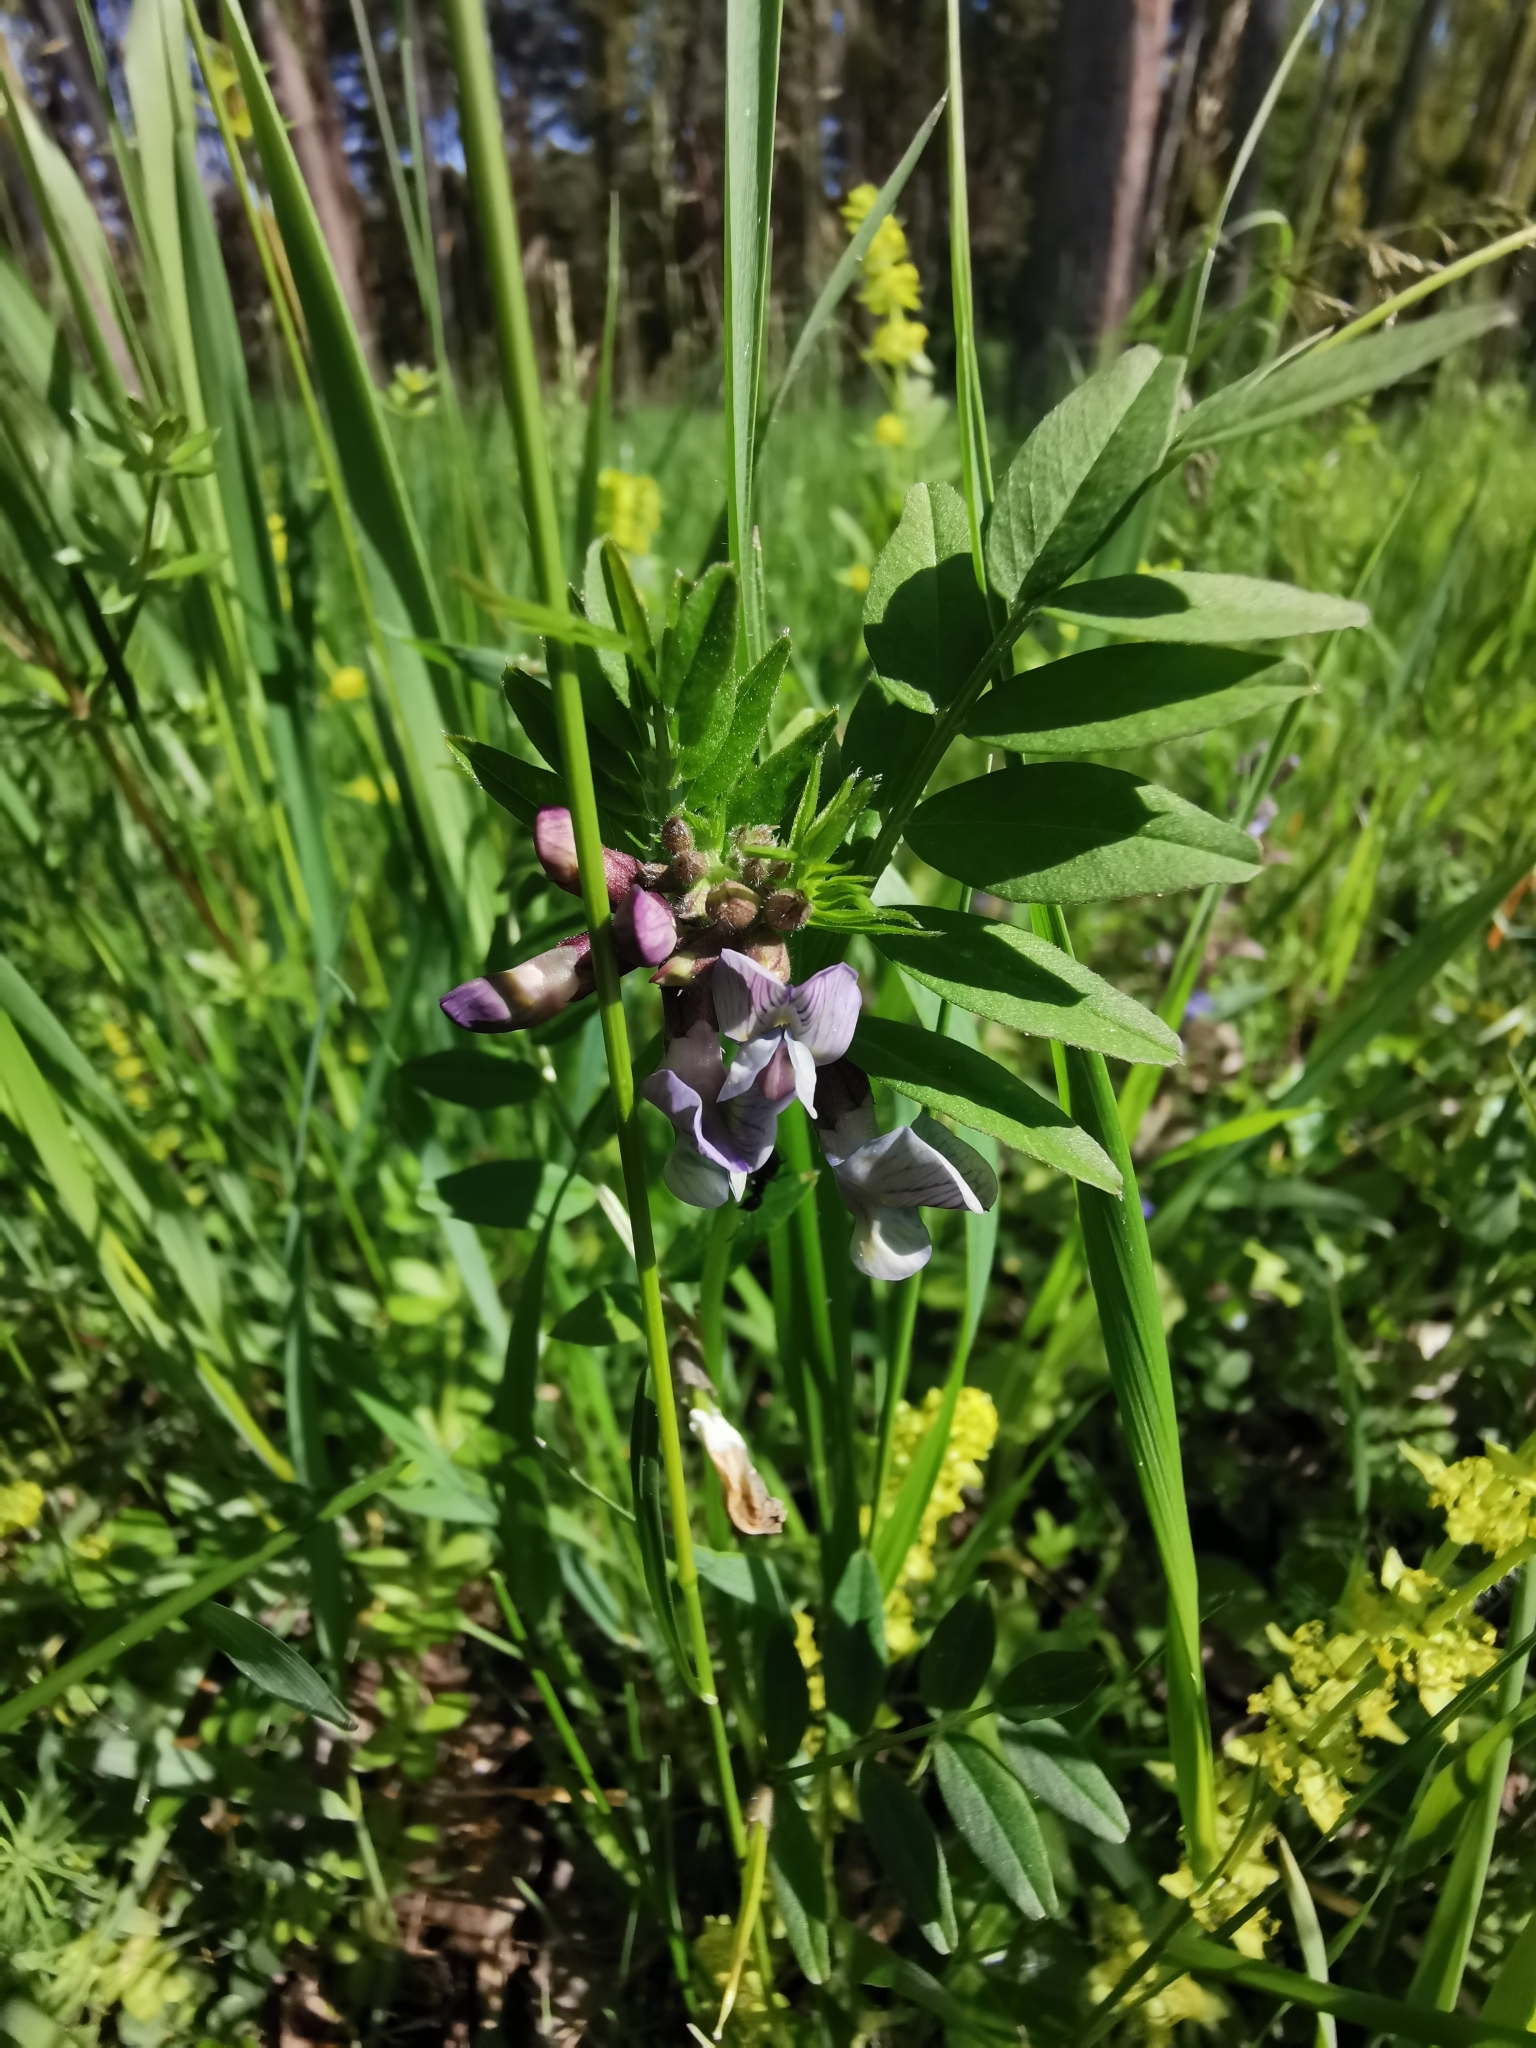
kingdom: Plantae
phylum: Tracheophyta
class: Magnoliopsida
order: Fabales
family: Fabaceae
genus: Vicia
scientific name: Vicia sepium
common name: Bush vetch
